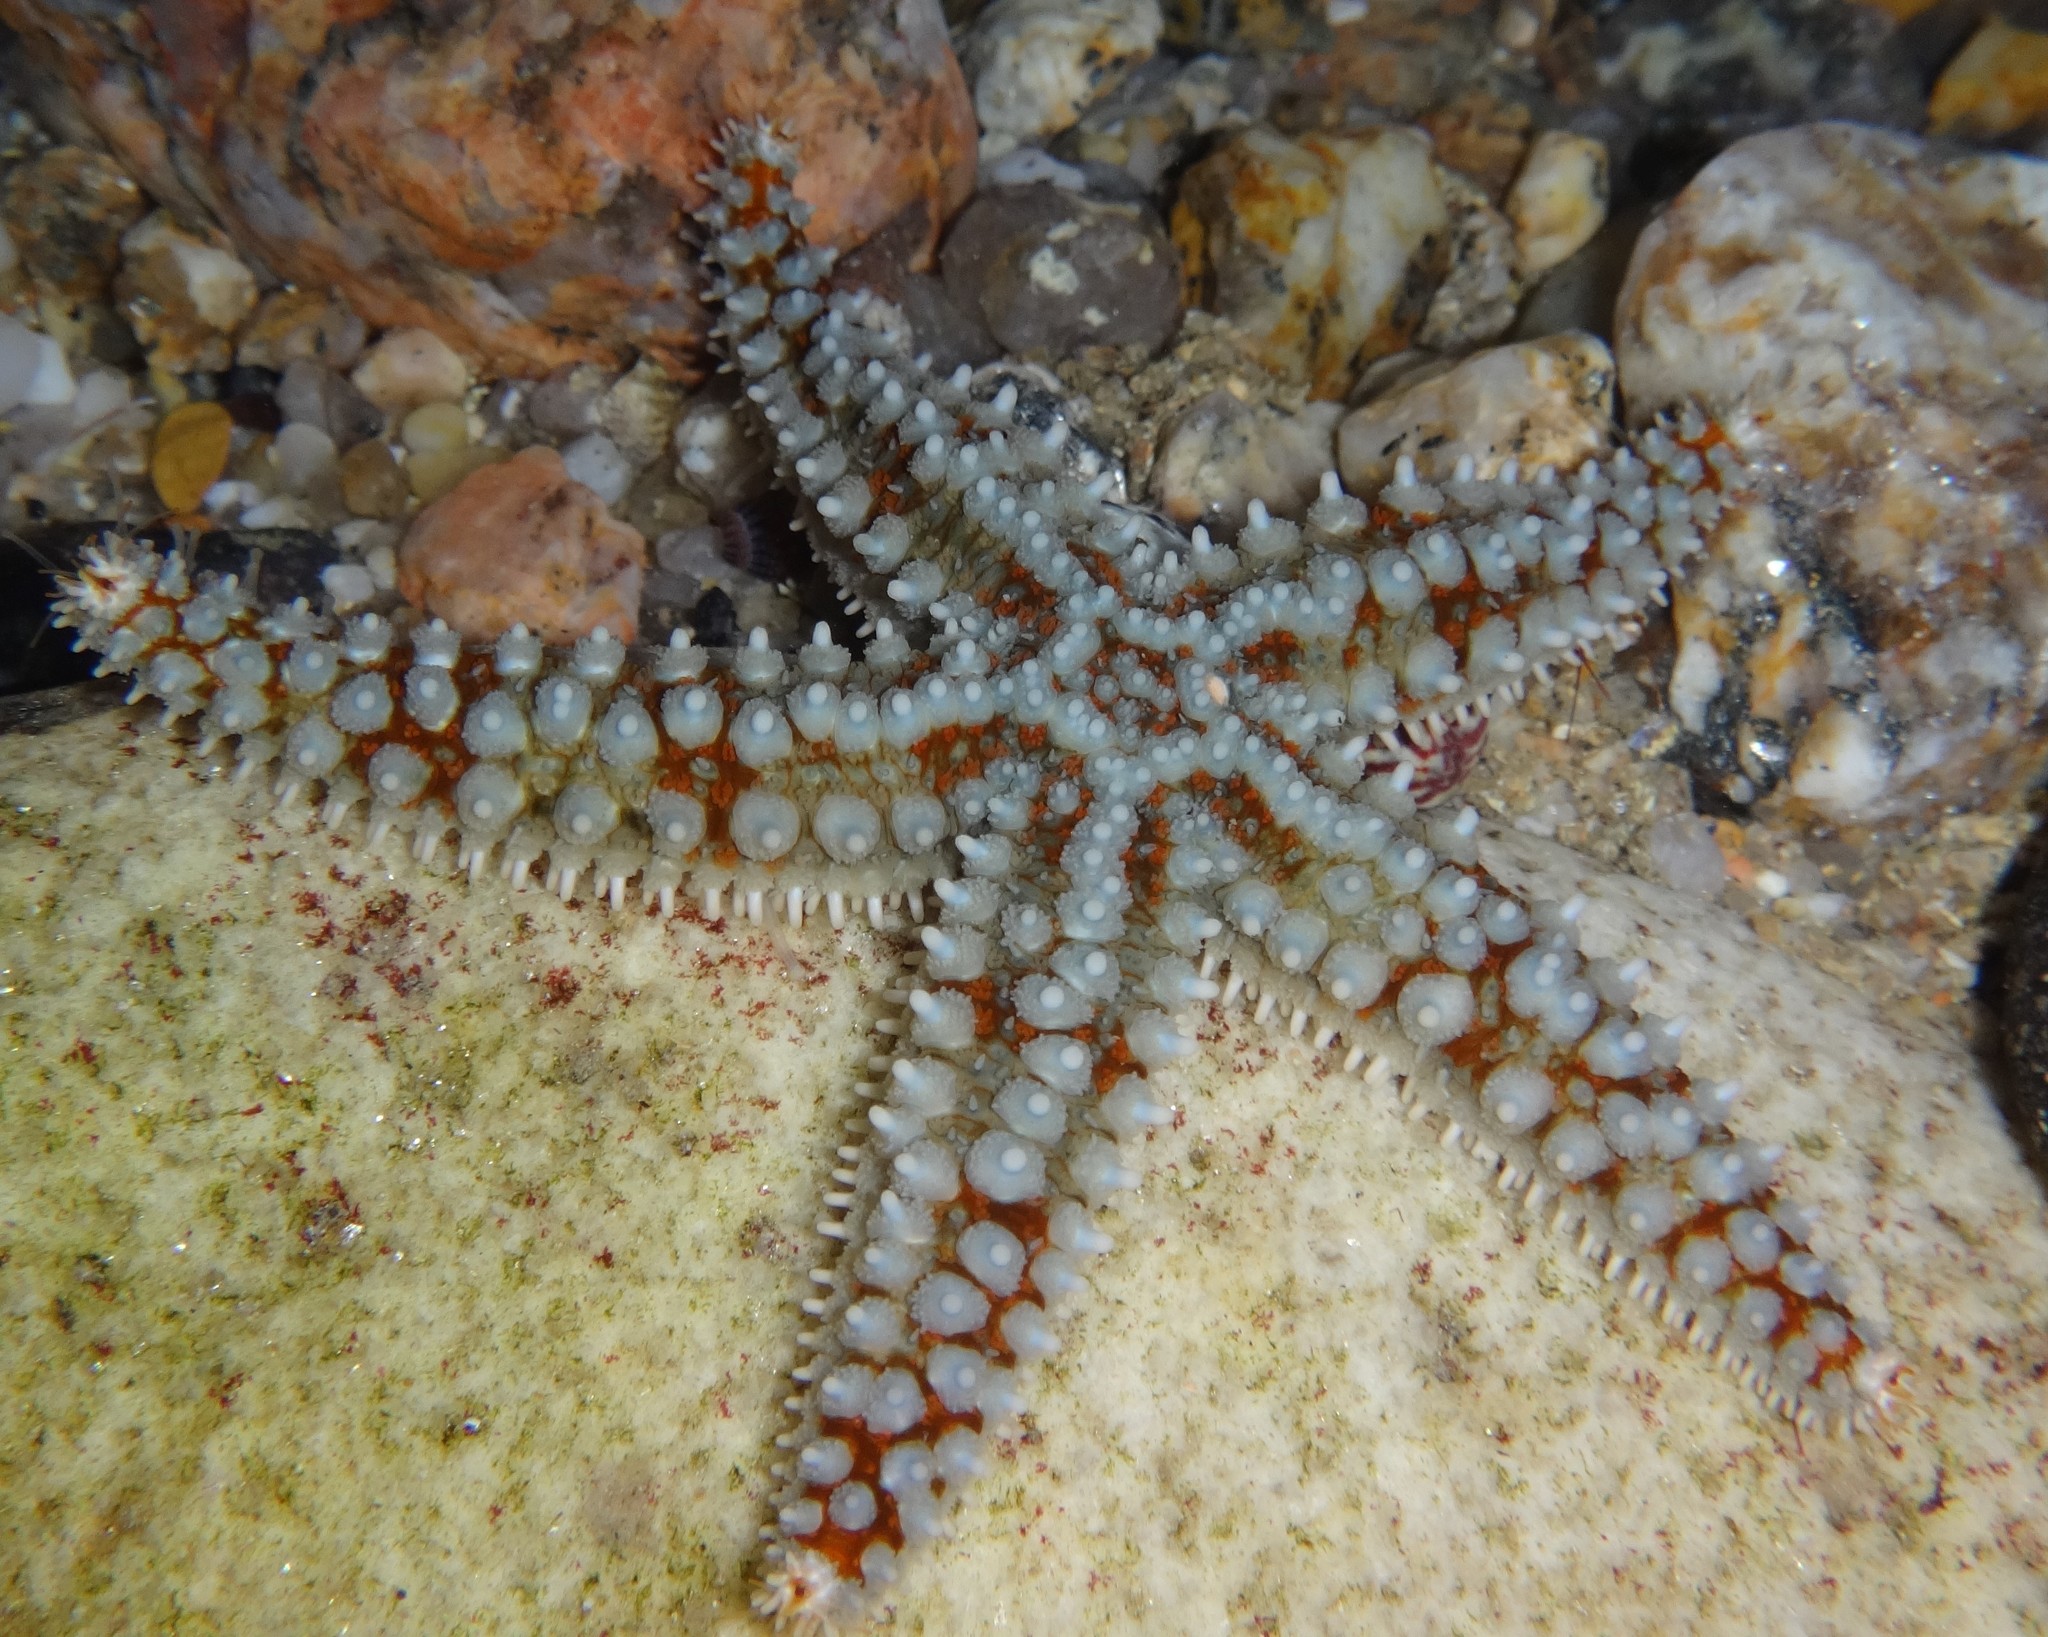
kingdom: Animalia
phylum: Echinodermata
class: Asteroidea
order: Forcipulatida
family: Asteriidae
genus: Marthasterias
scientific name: Marthasterias glacialis
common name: Spiny starfish
